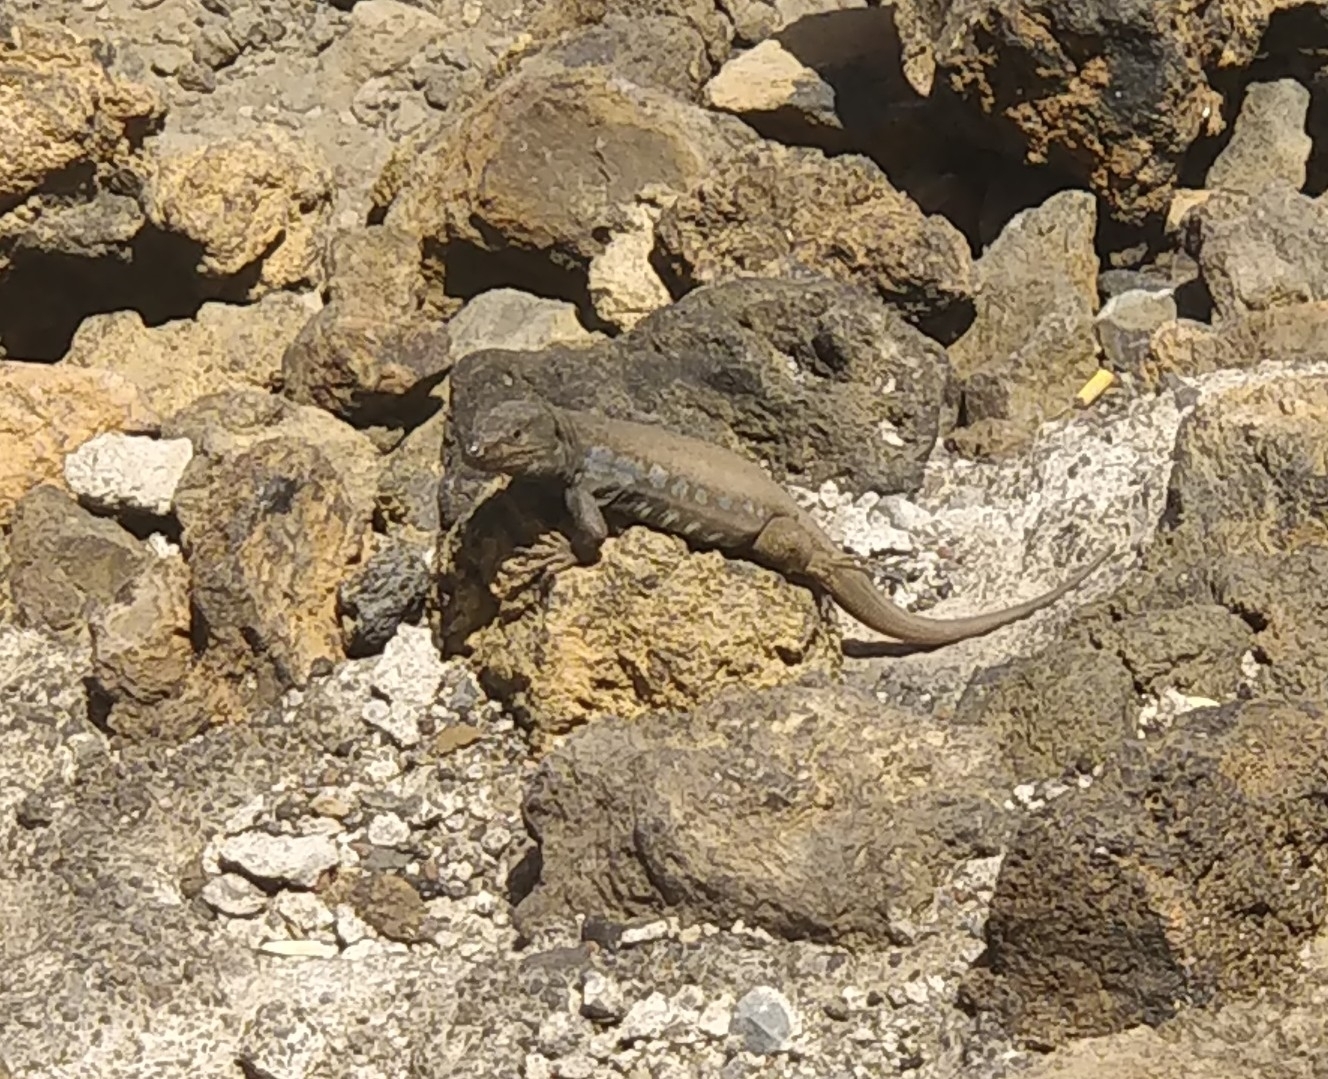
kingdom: Animalia
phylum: Chordata
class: Squamata
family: Lacertidae
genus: Gallotia
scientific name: Gallotia galloti
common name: Gallot's lizard
